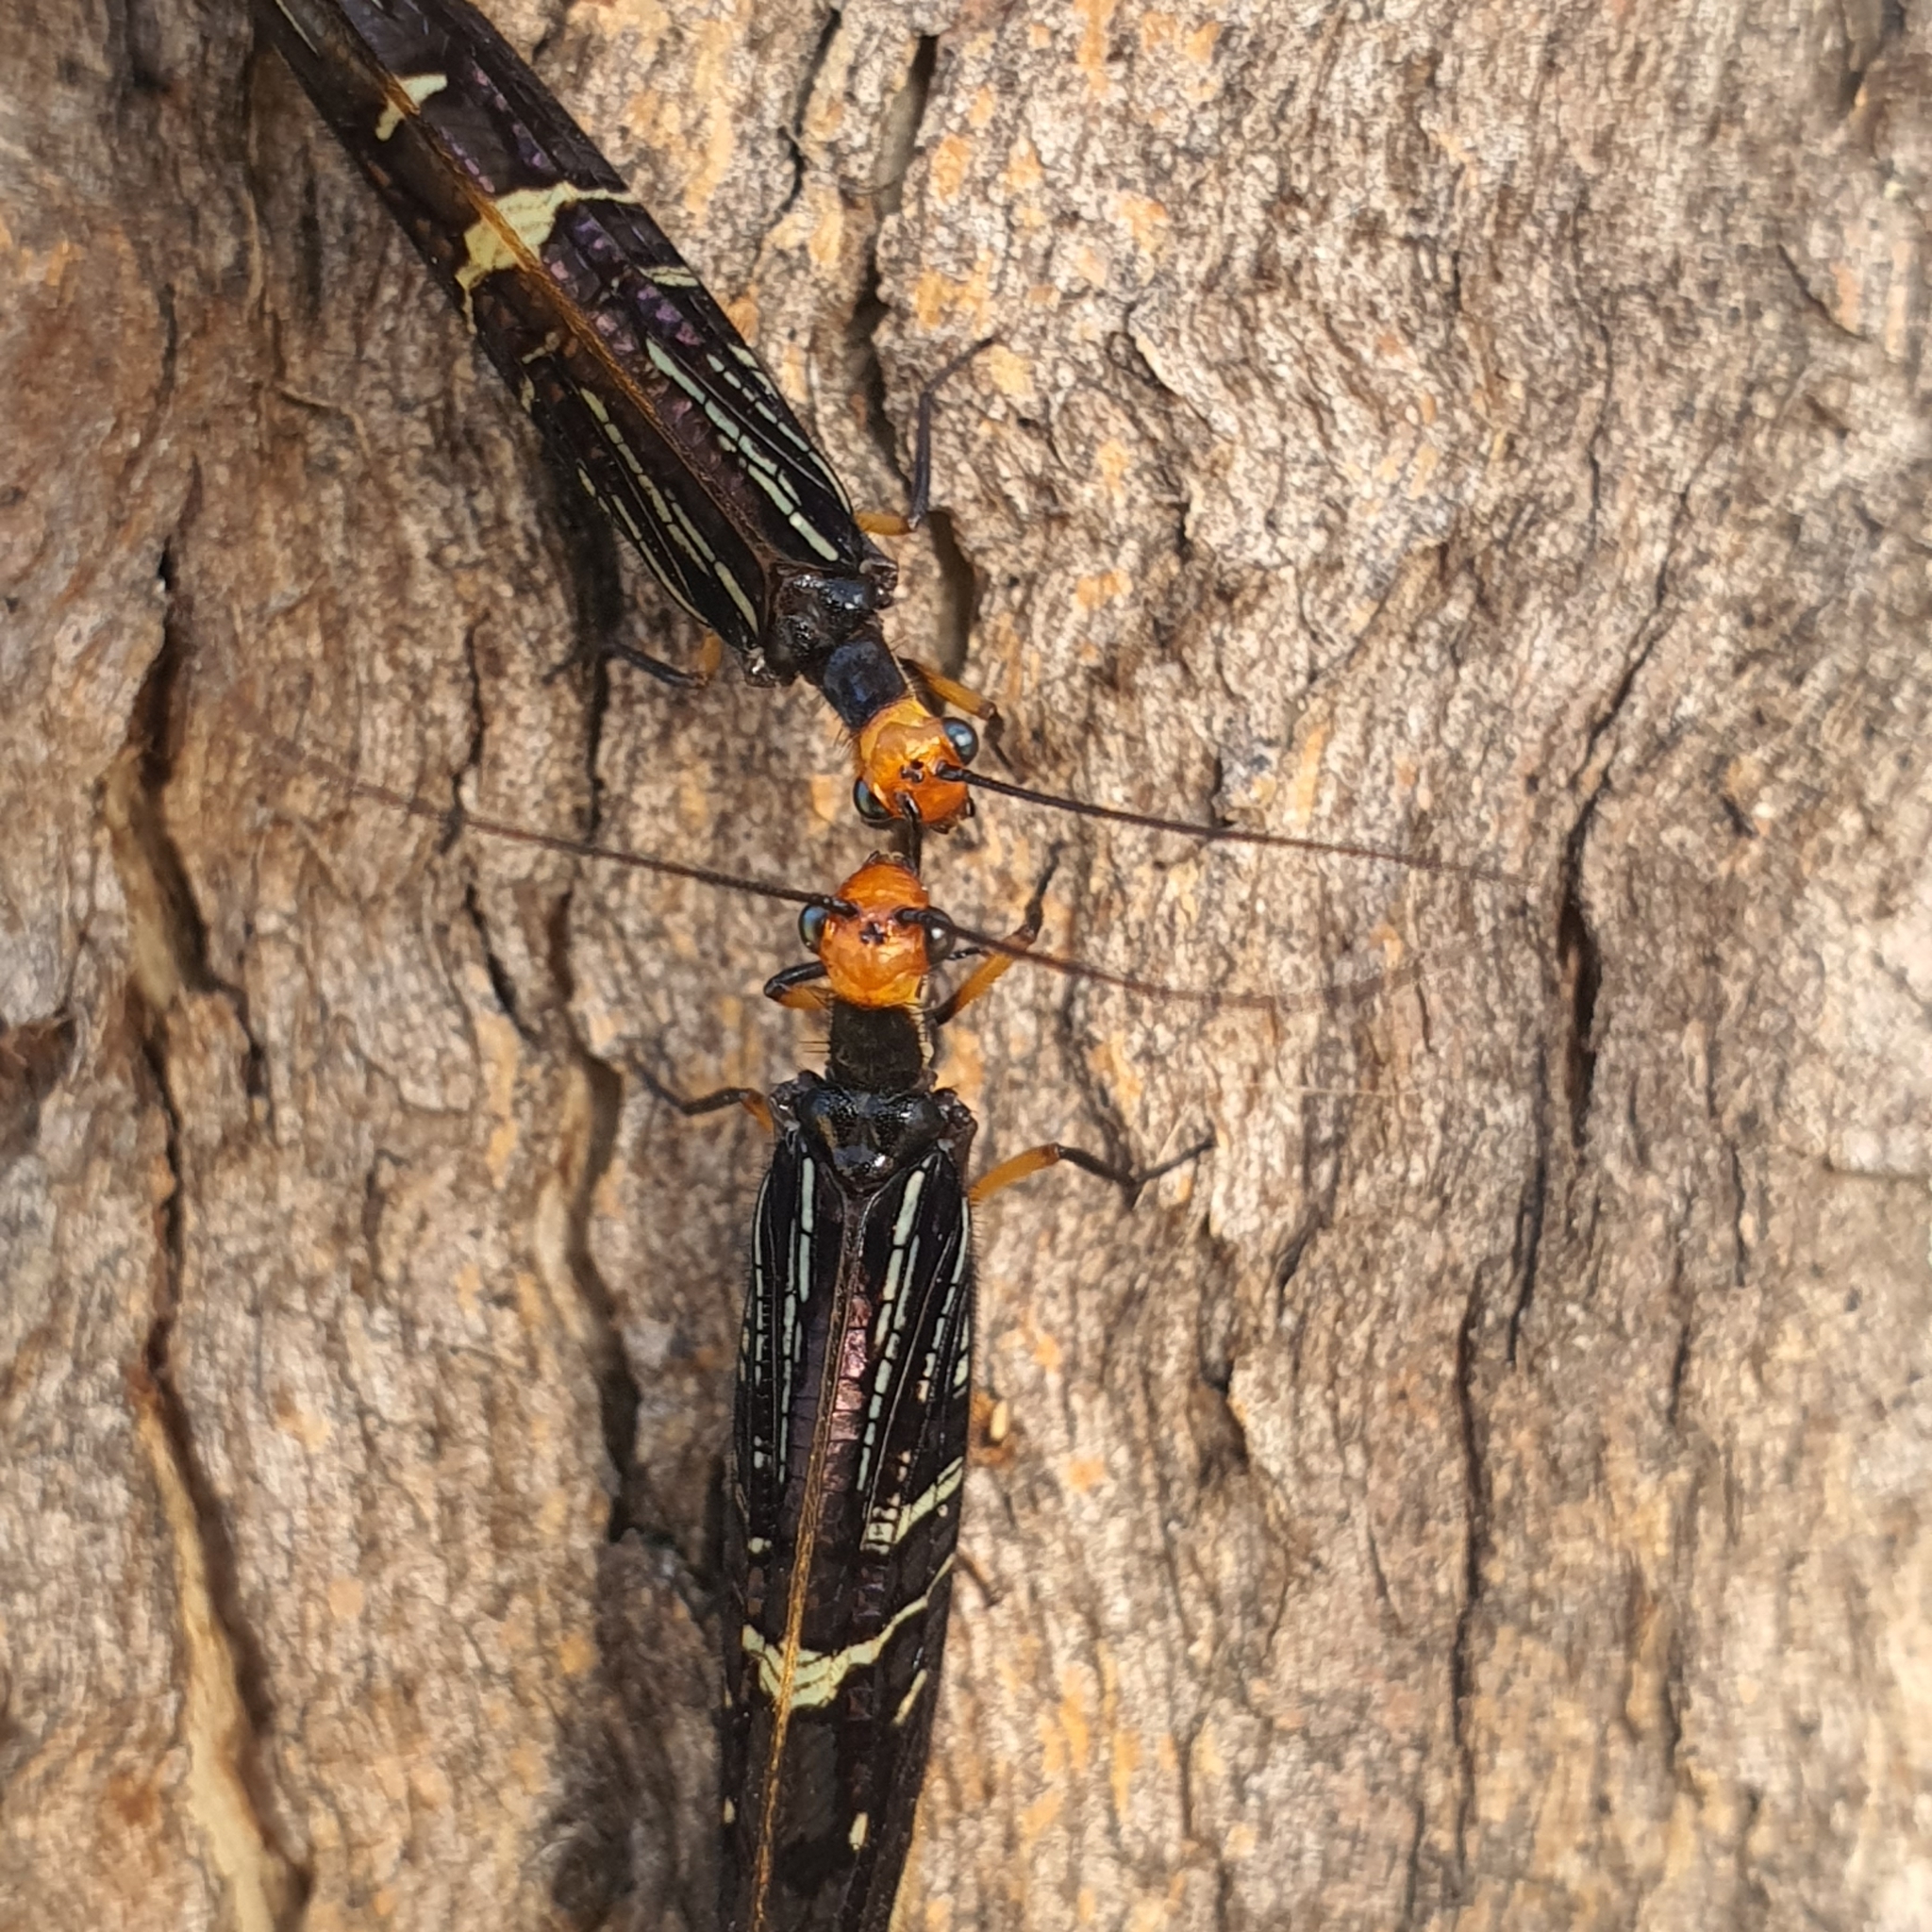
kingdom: Animalia
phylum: Arthropoda
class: Insecta
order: Neuroptera
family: Osmylidae
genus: Porismus
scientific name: Porismus strigatus
